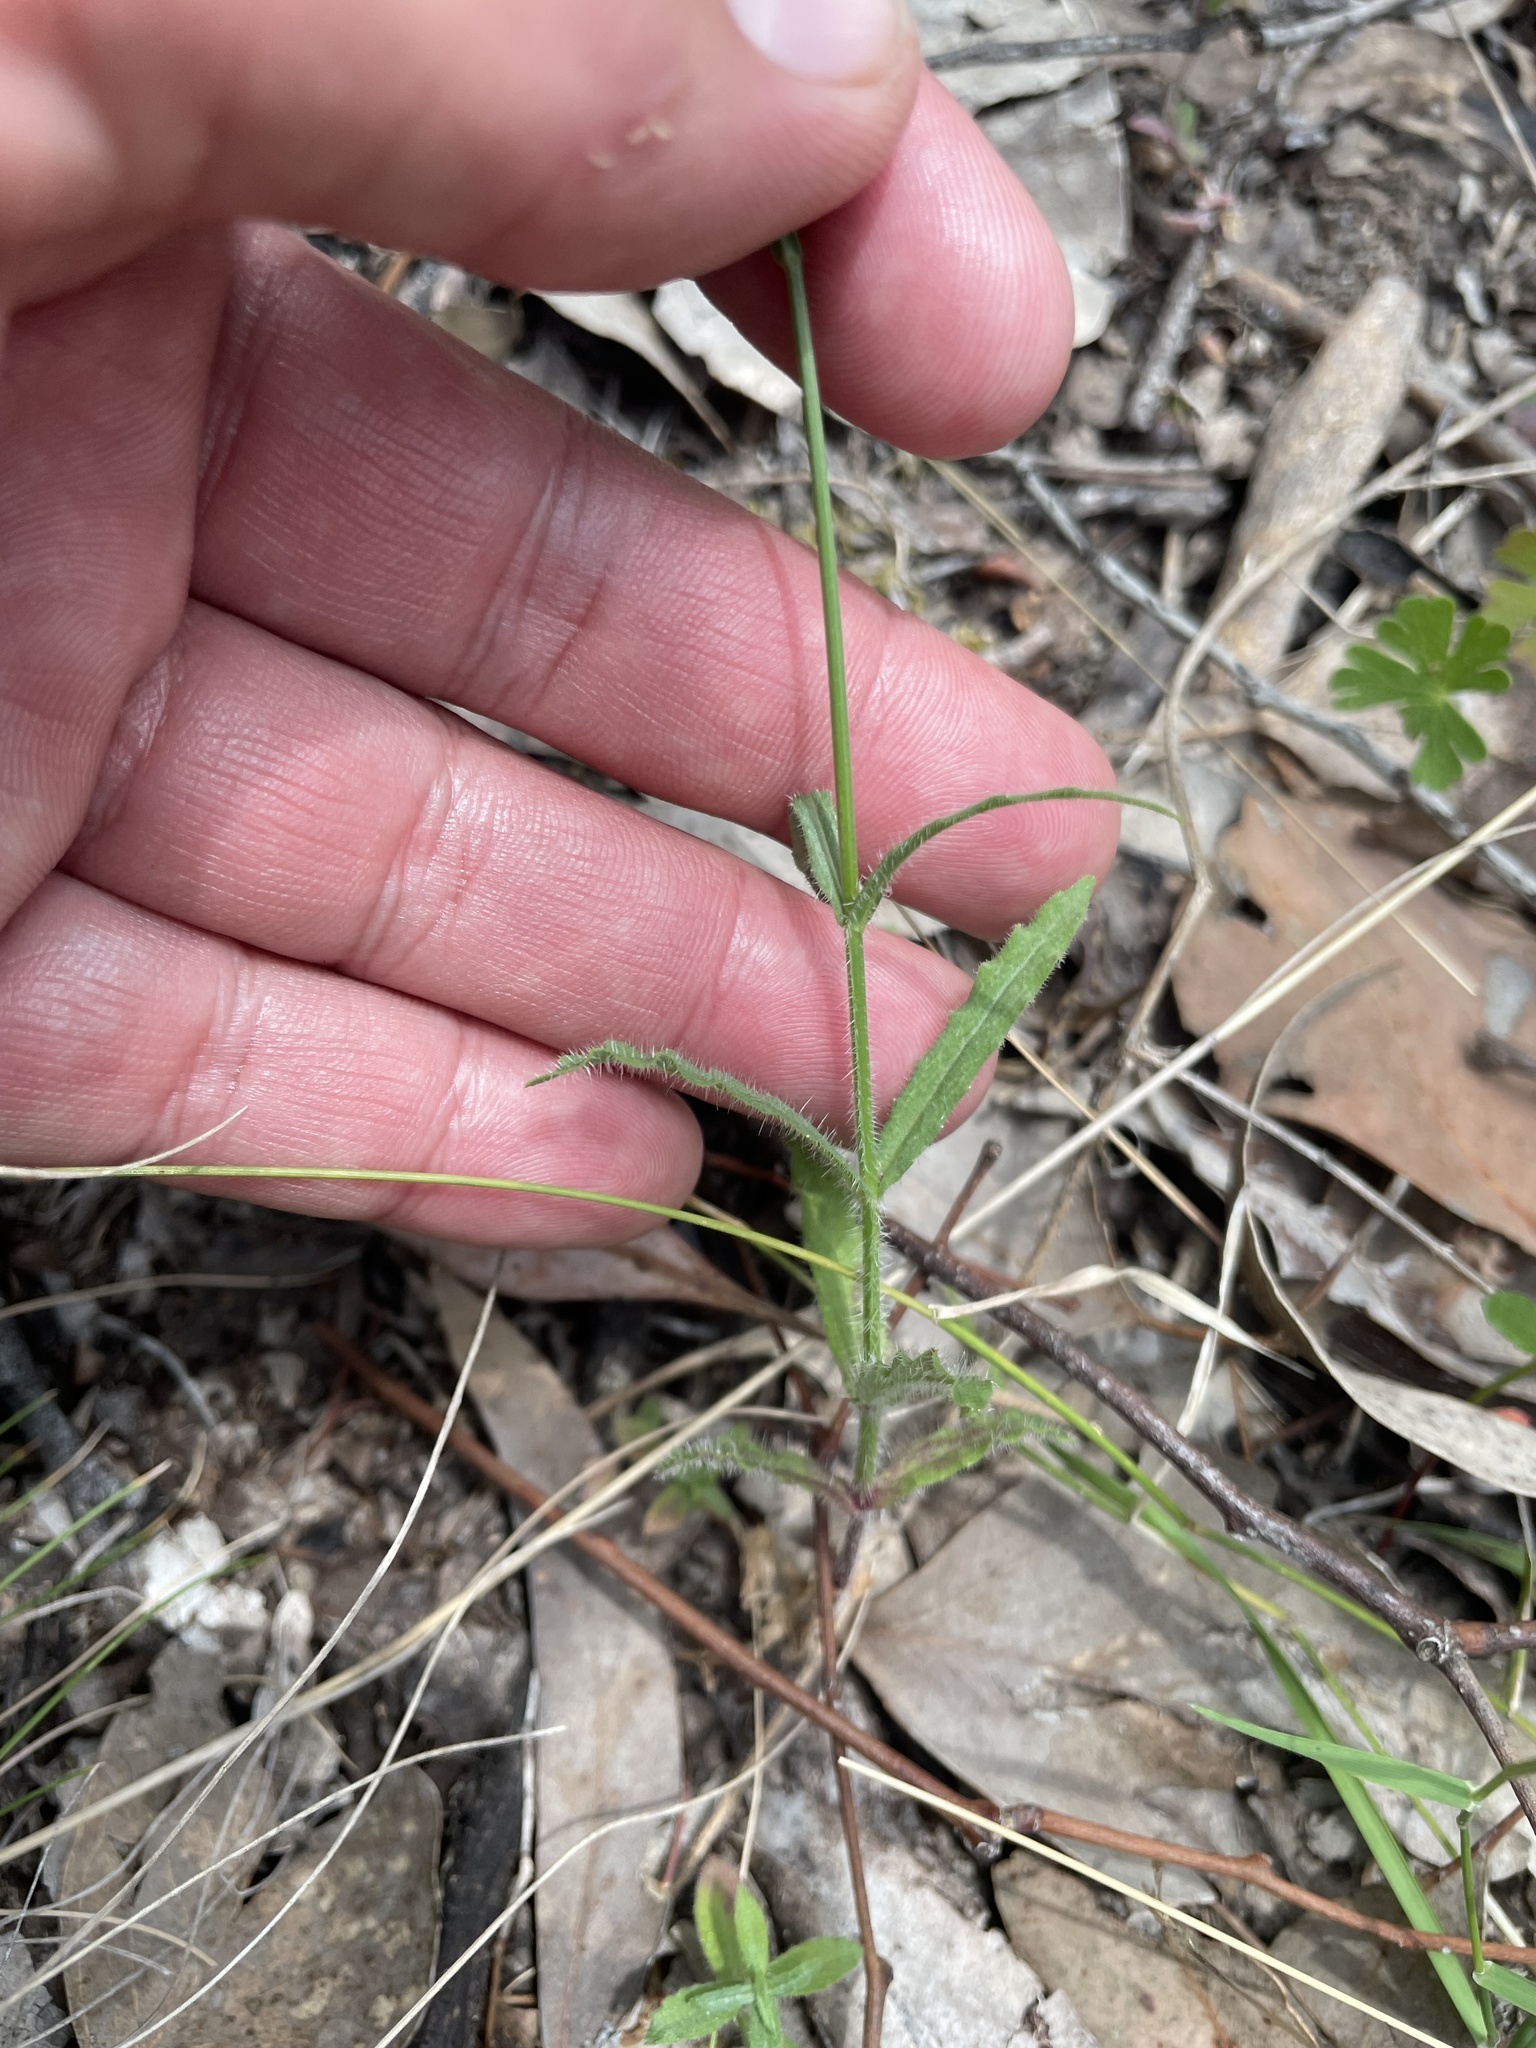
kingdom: Plantae
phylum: Tracheophyta
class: Magnoliopsida
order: Asterales
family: Campanulaceae
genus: Wahlenbergia
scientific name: Wahlenbergia stricta
